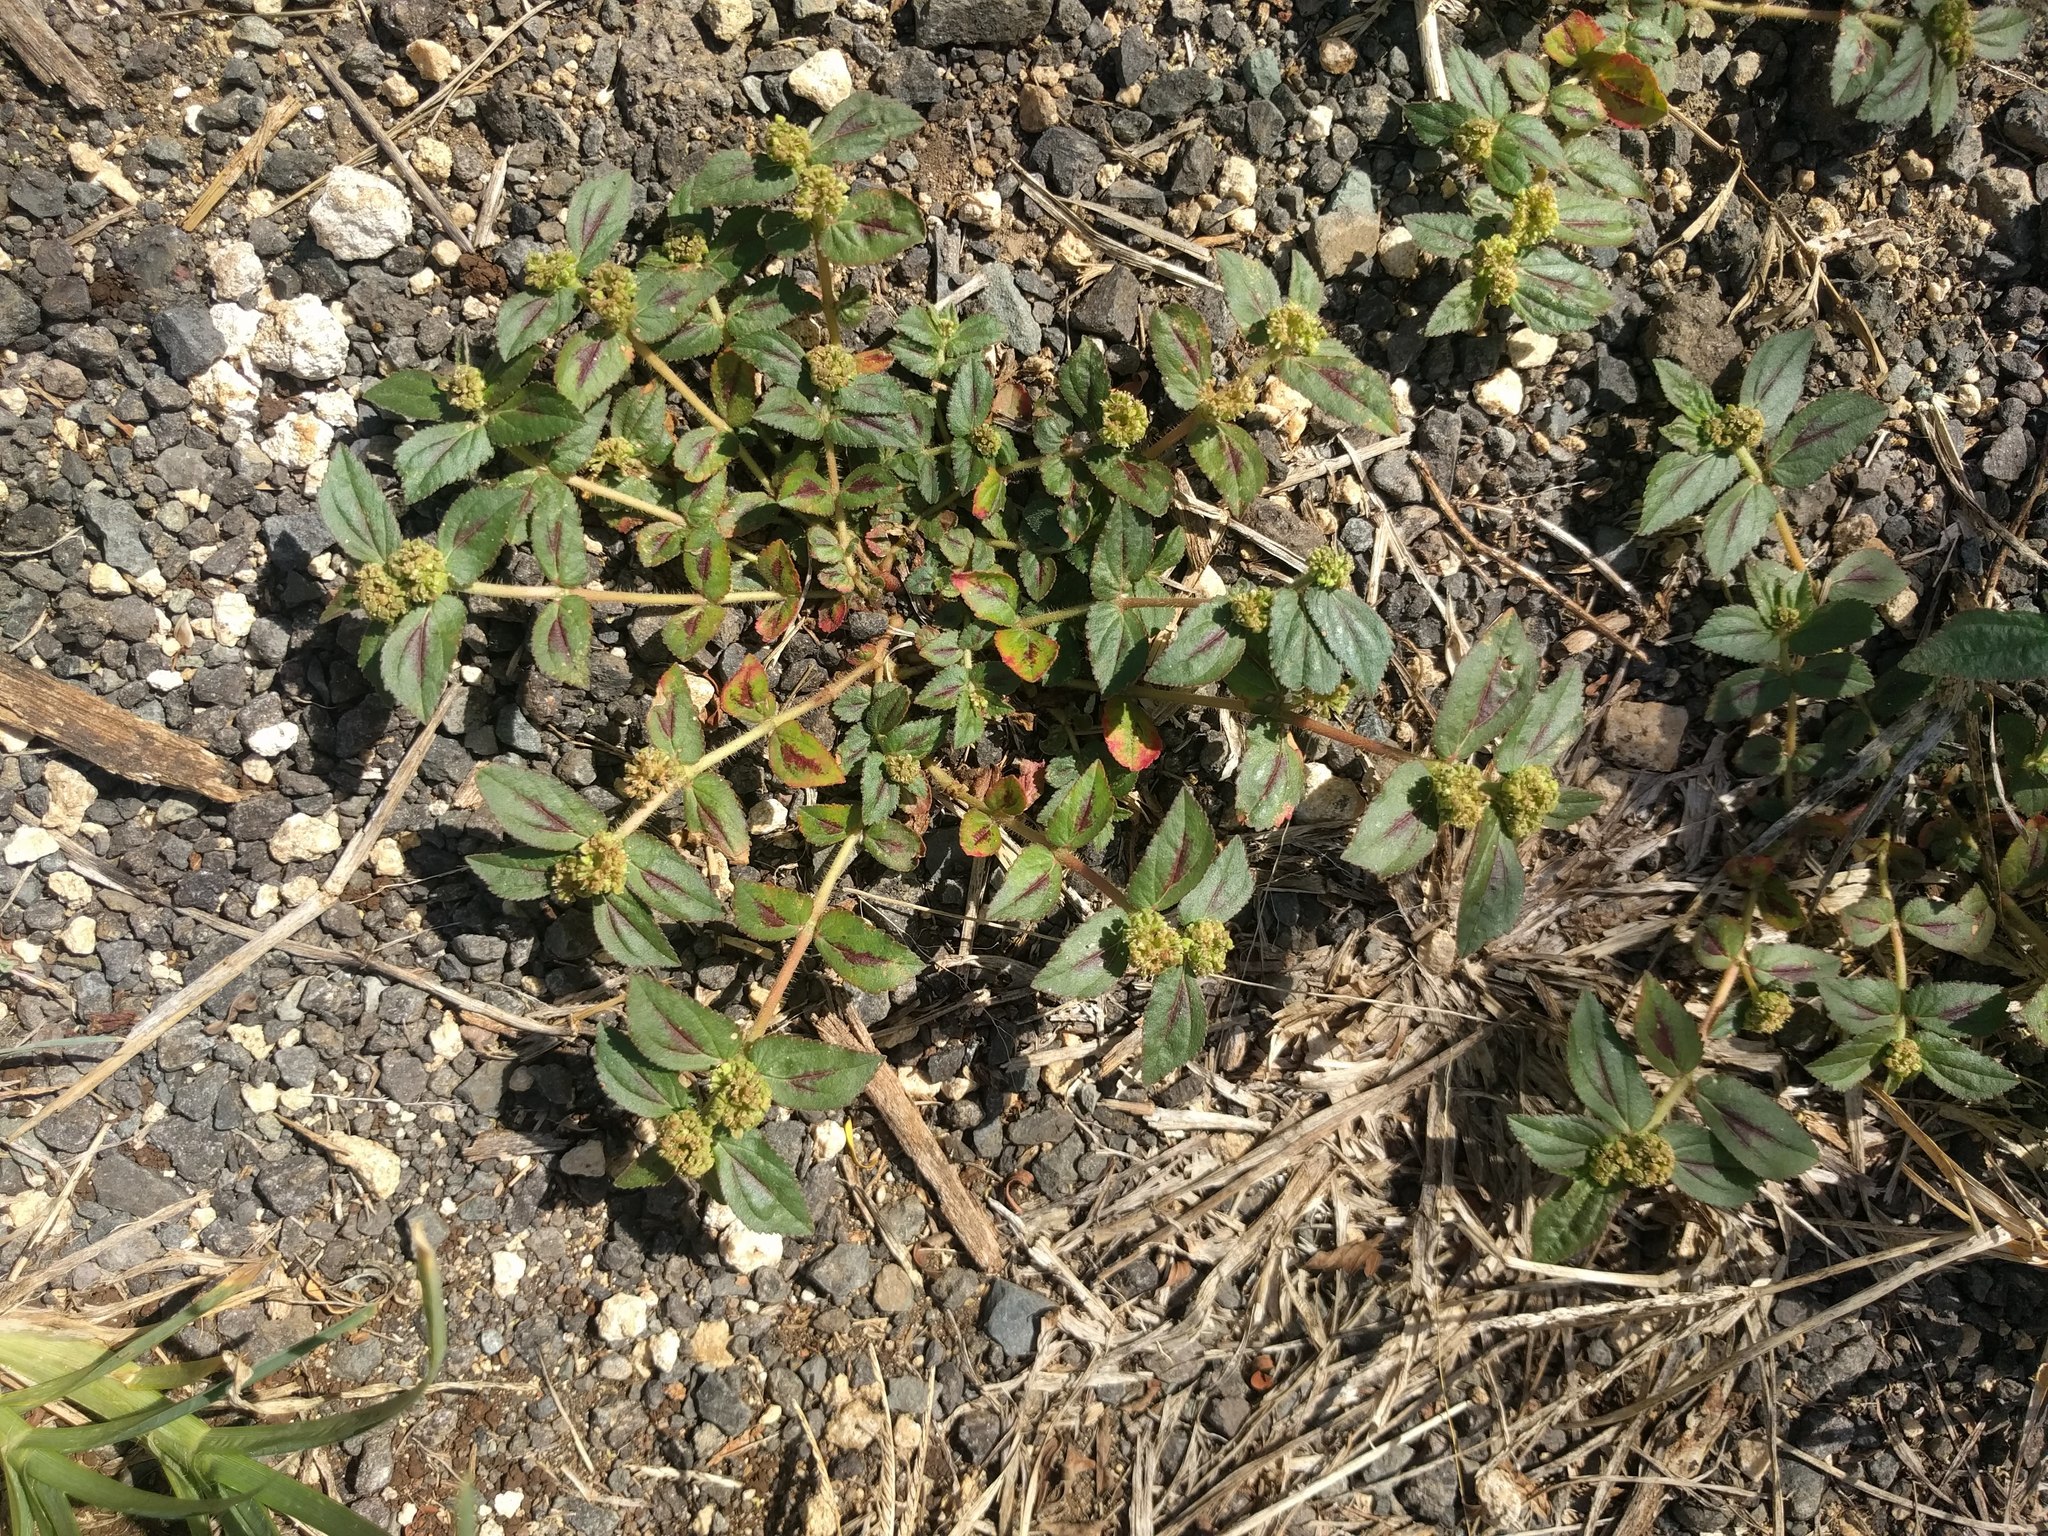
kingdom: Plantae
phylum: Tracheophyta
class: Magnoliopsida
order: Malpighiales
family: Euphorbiaceae
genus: Euphorbia
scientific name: Euphorbia hirta
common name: Pillpod sandmat
